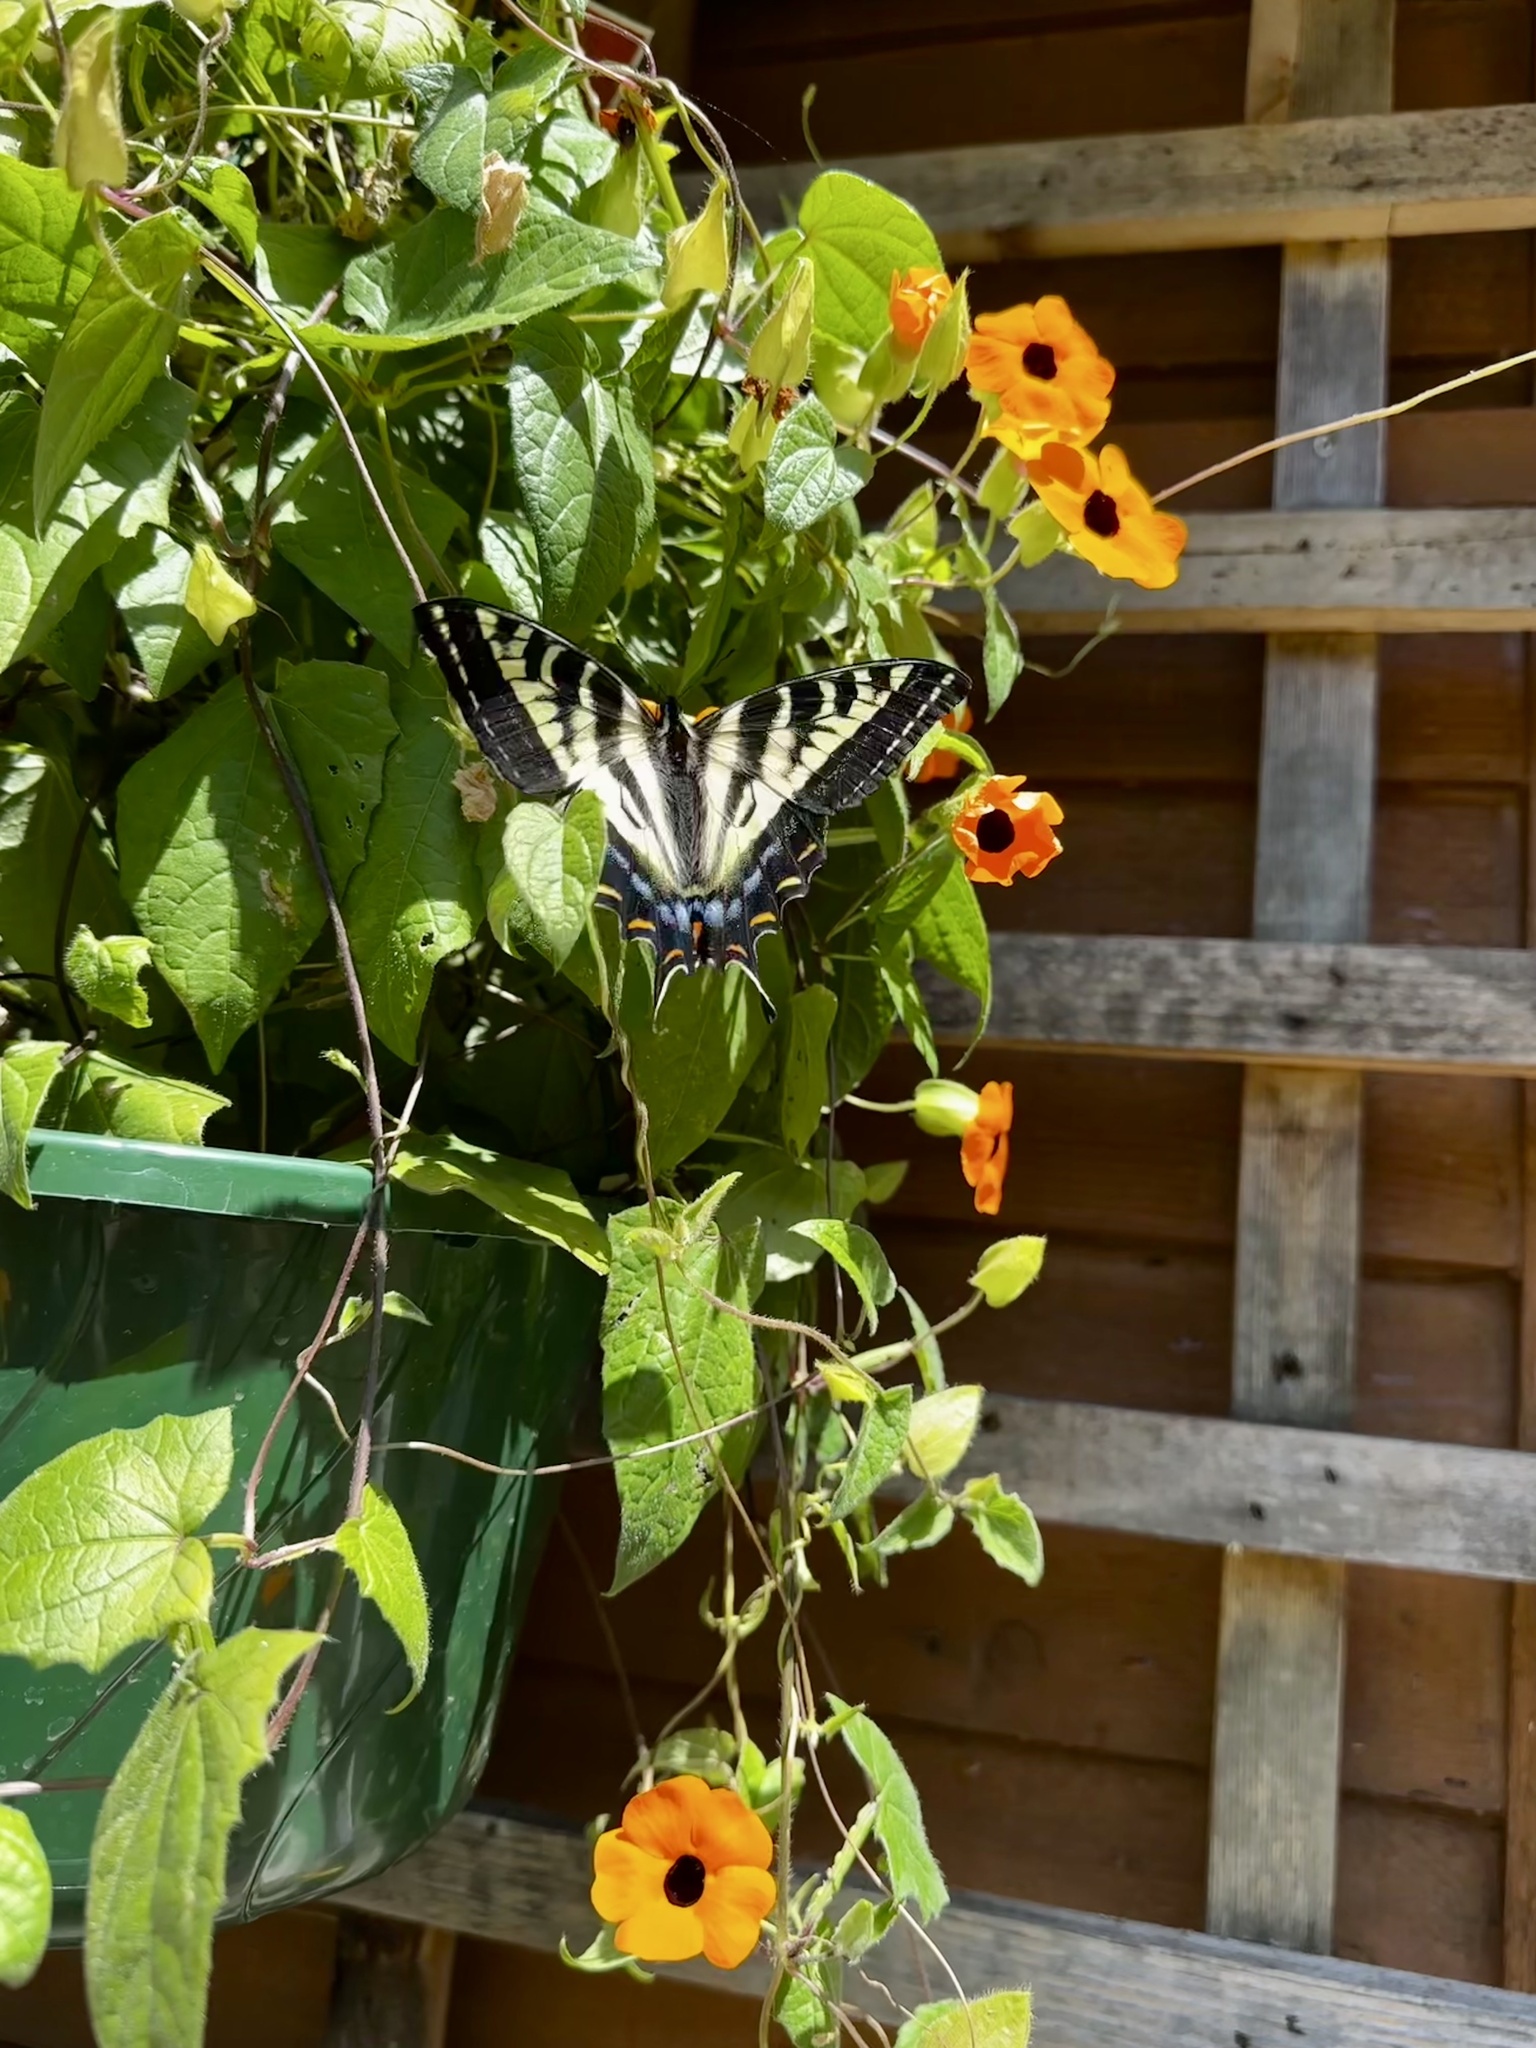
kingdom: Animalia
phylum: Arthropoda
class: Insecta
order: Lepidoptera
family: Papilionidae
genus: Papilio
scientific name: Papilio eurymedon
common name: Pale tiger swallowtail
